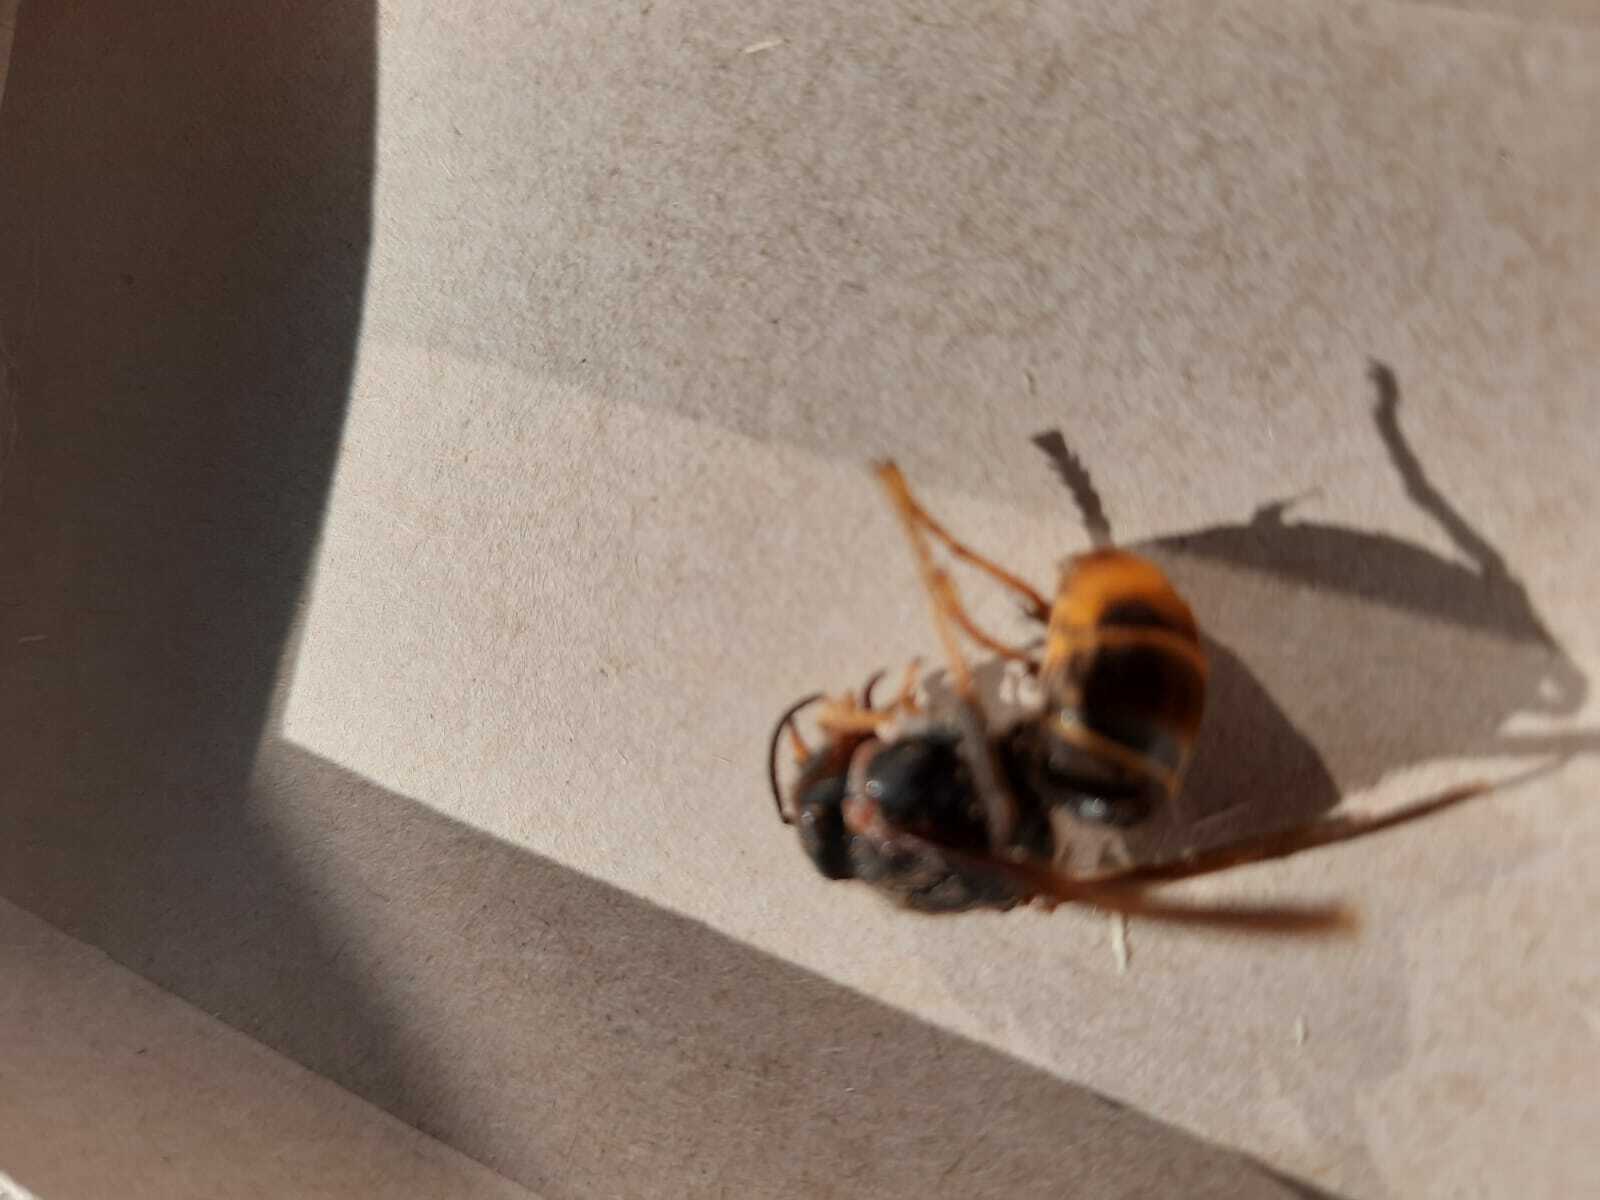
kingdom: Animalia
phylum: Arthropoda
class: Insecta
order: Hymenoptera
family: Vespidae
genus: Vespa
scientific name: Vespa velutina
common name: Asian hornet
